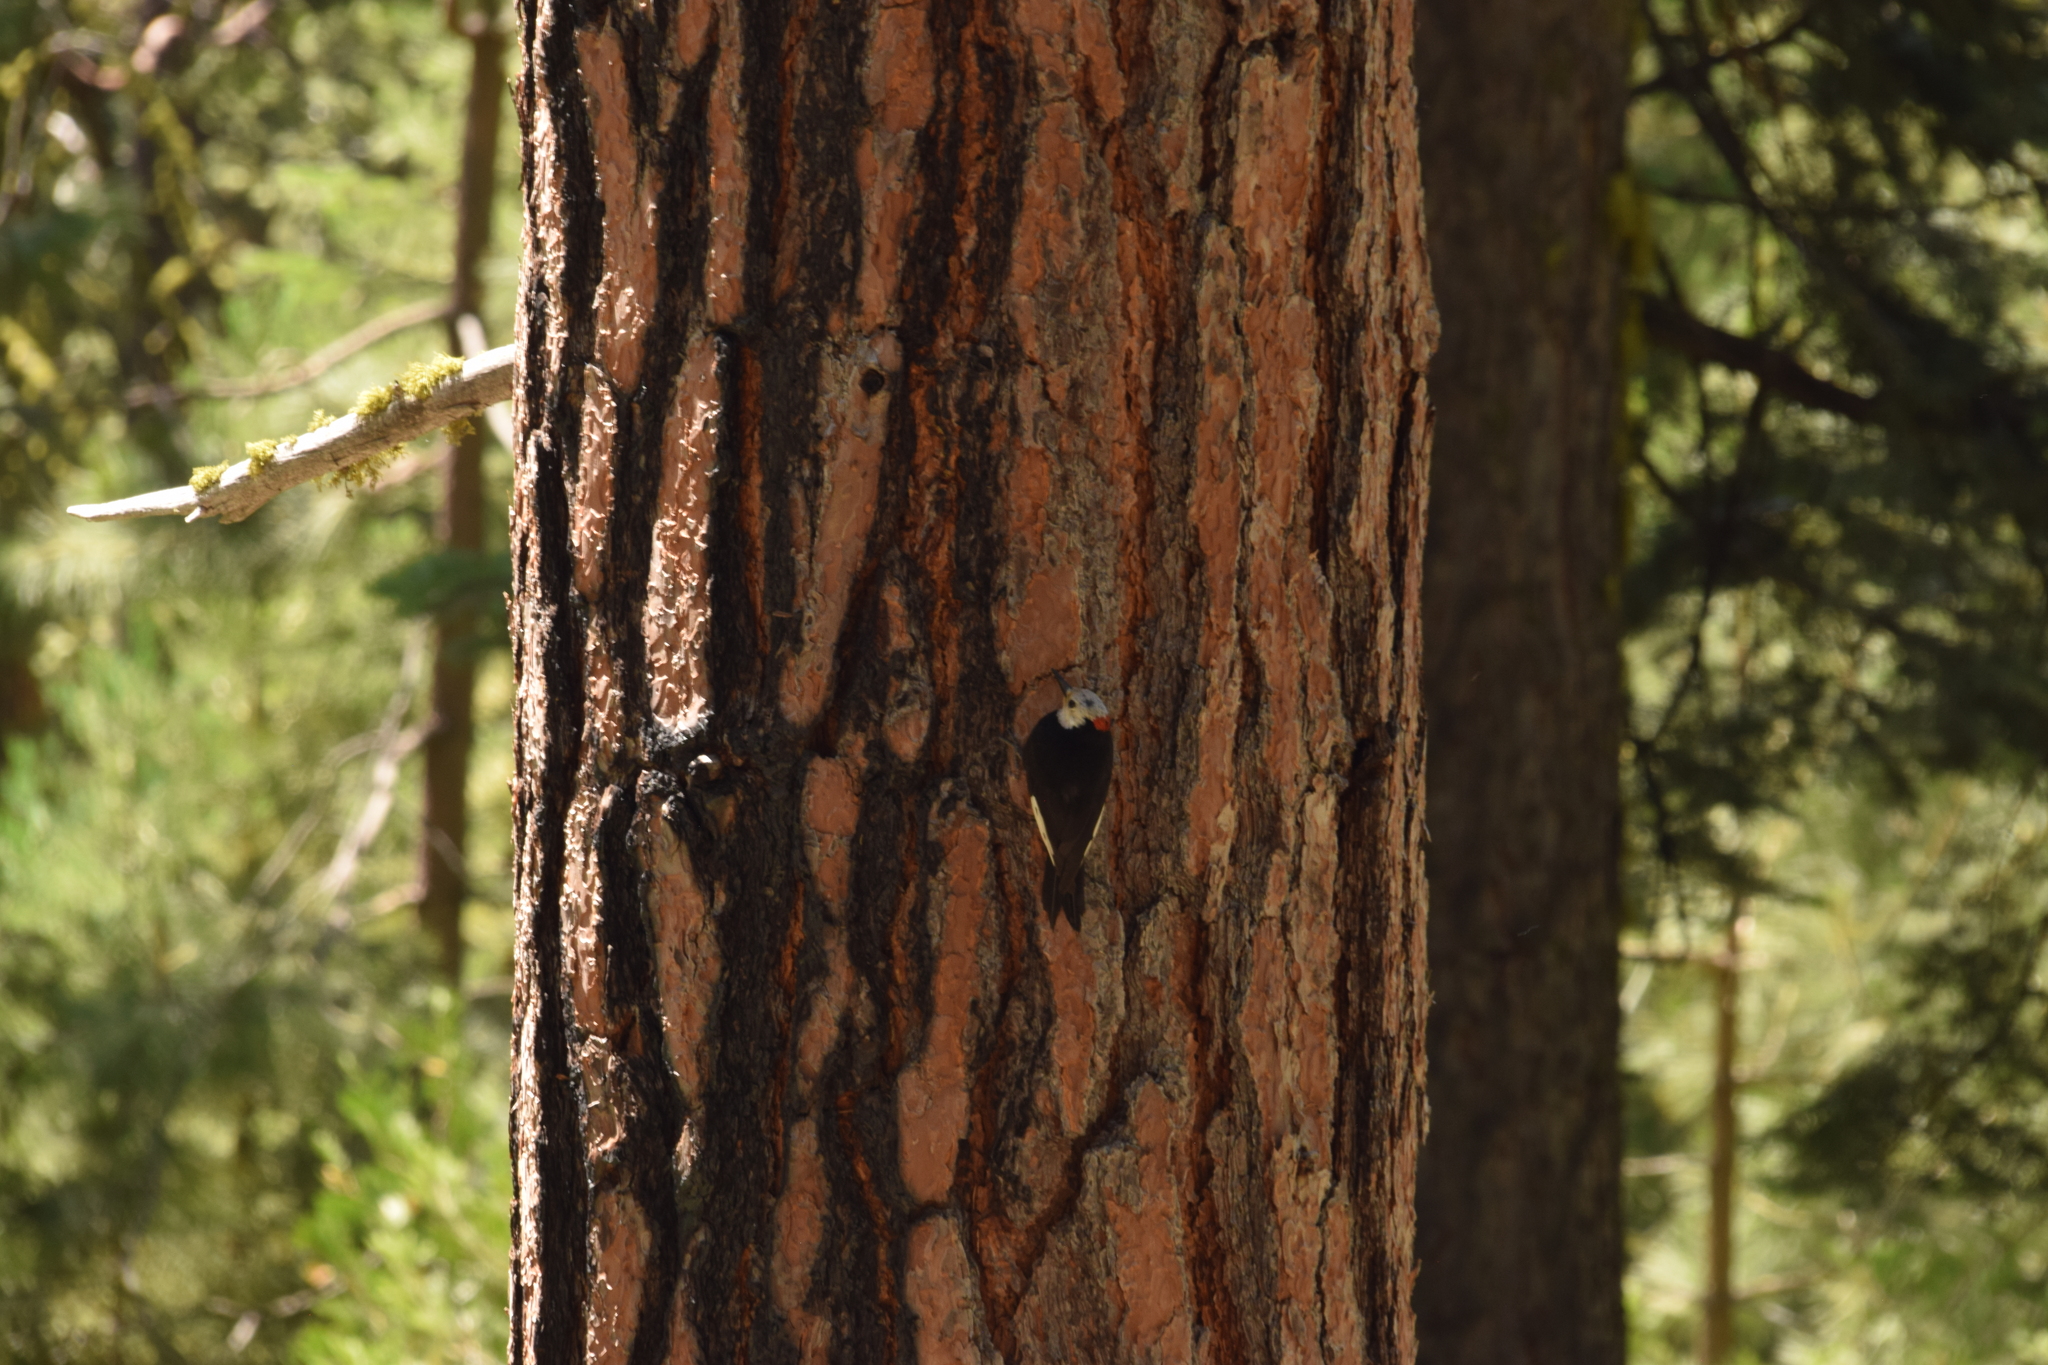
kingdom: Animalia
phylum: Chordata
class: Aves
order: Piciformes
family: Picidae
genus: Leuconotopicus
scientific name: Leuconotopicus albolarvatus
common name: White-headed woodpecker
